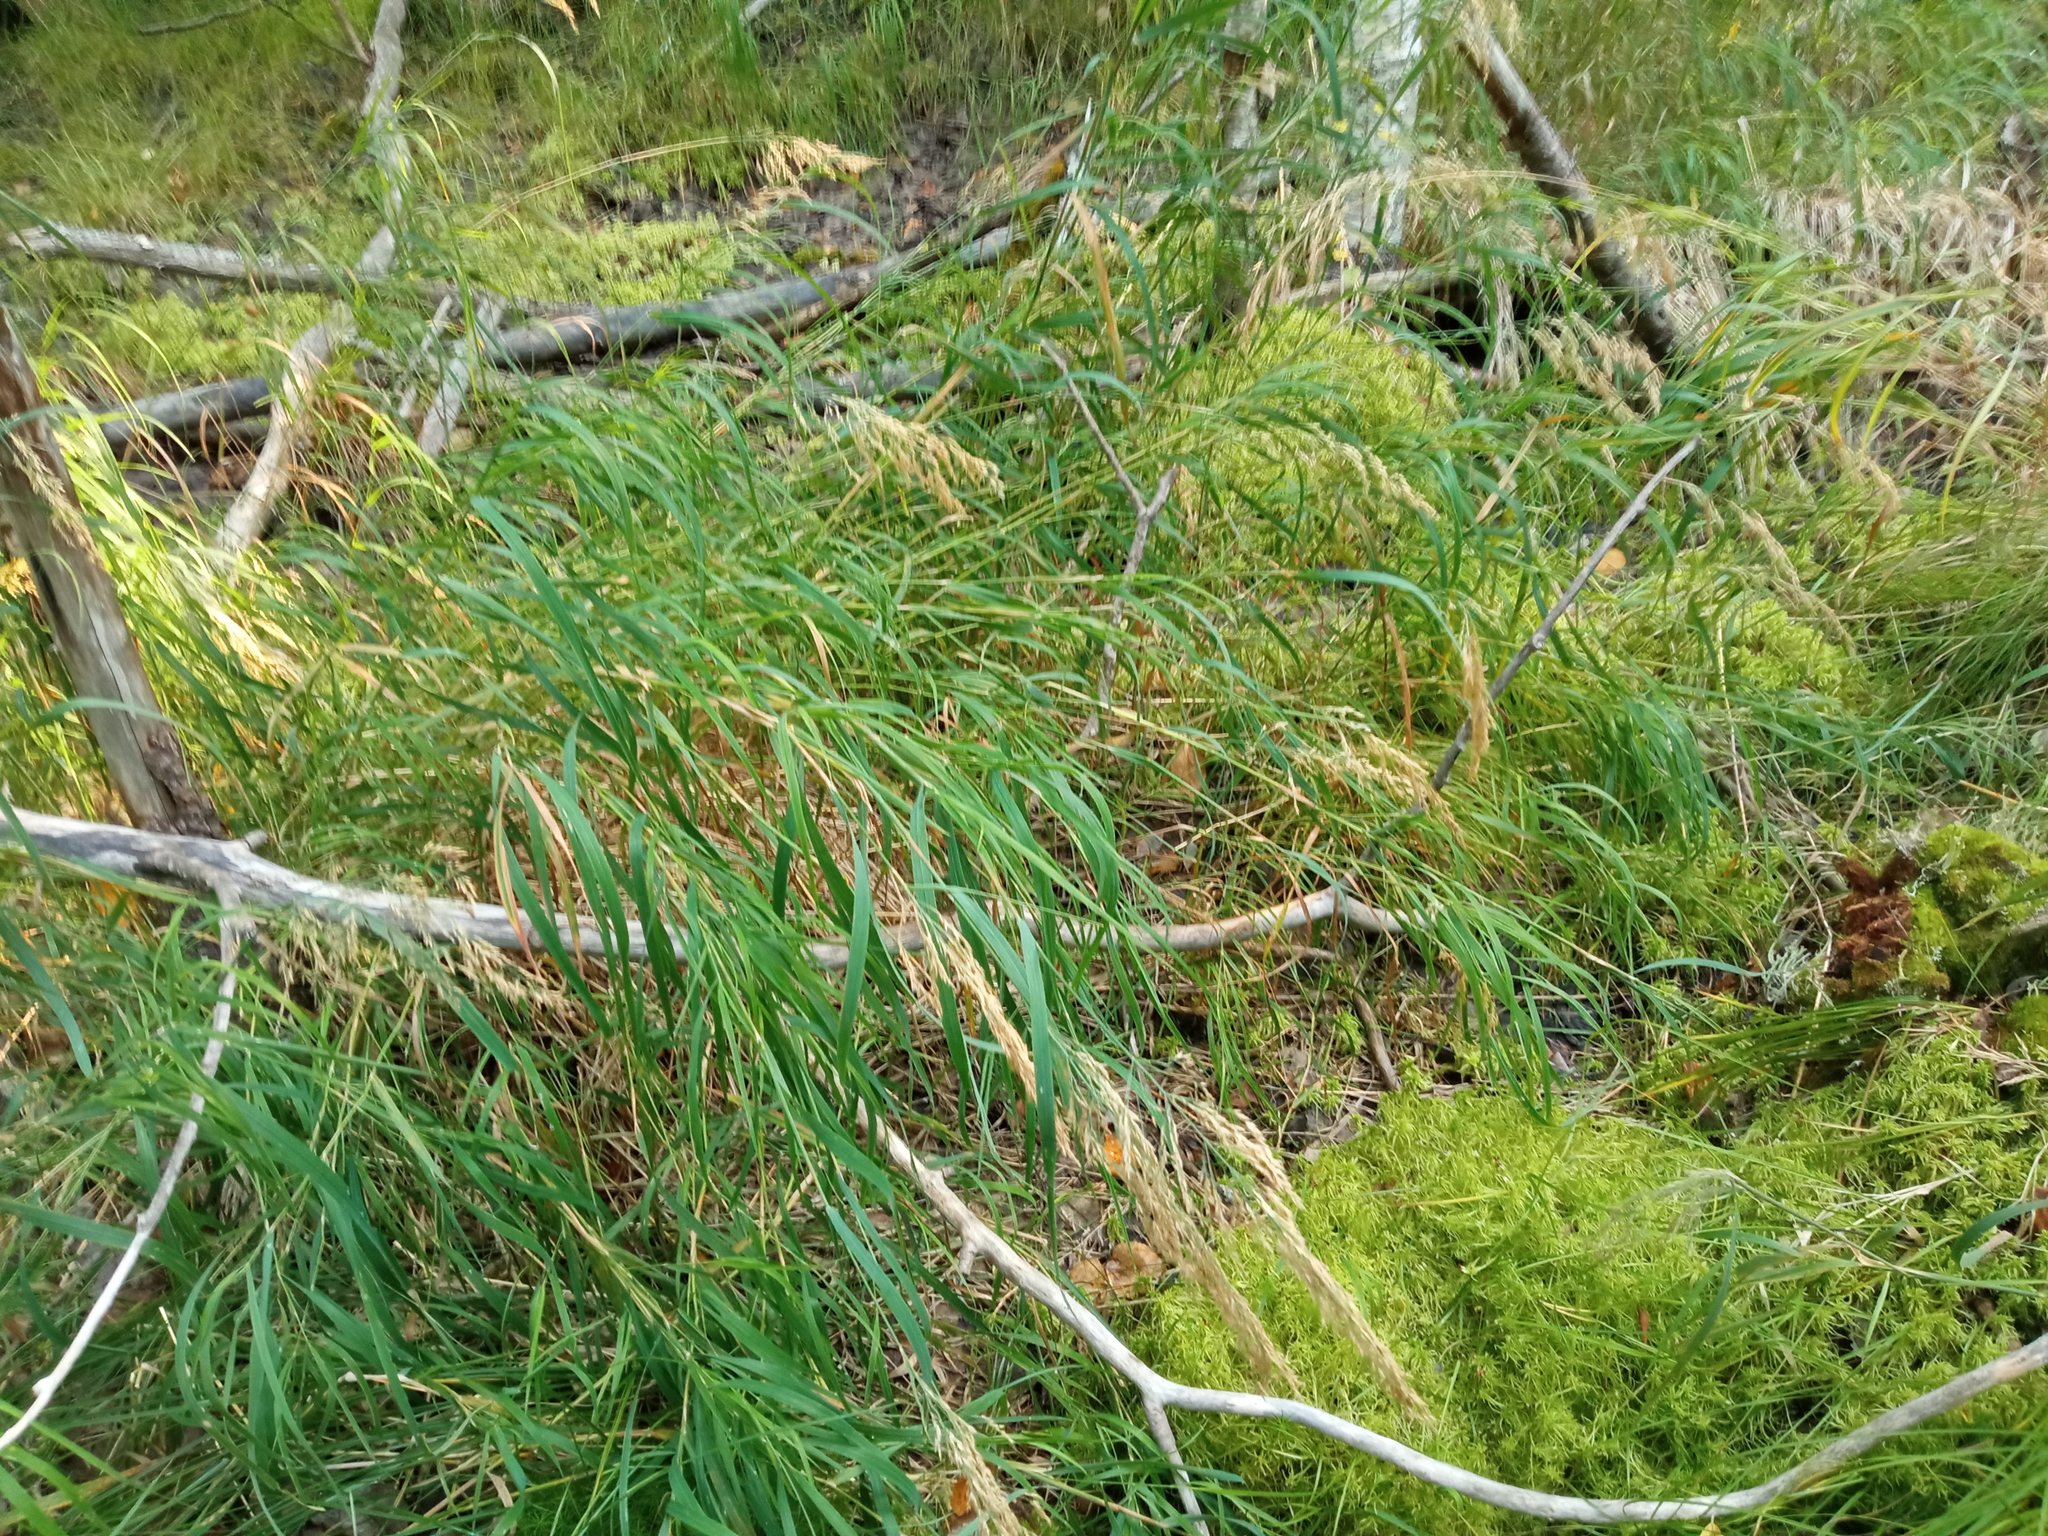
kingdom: Plantae
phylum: Tracheophyta
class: Liliopsida
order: Poales
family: Poaceae
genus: Calamagrostis
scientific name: Calamagrostis purpurea
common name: Scandinavian small-reed
